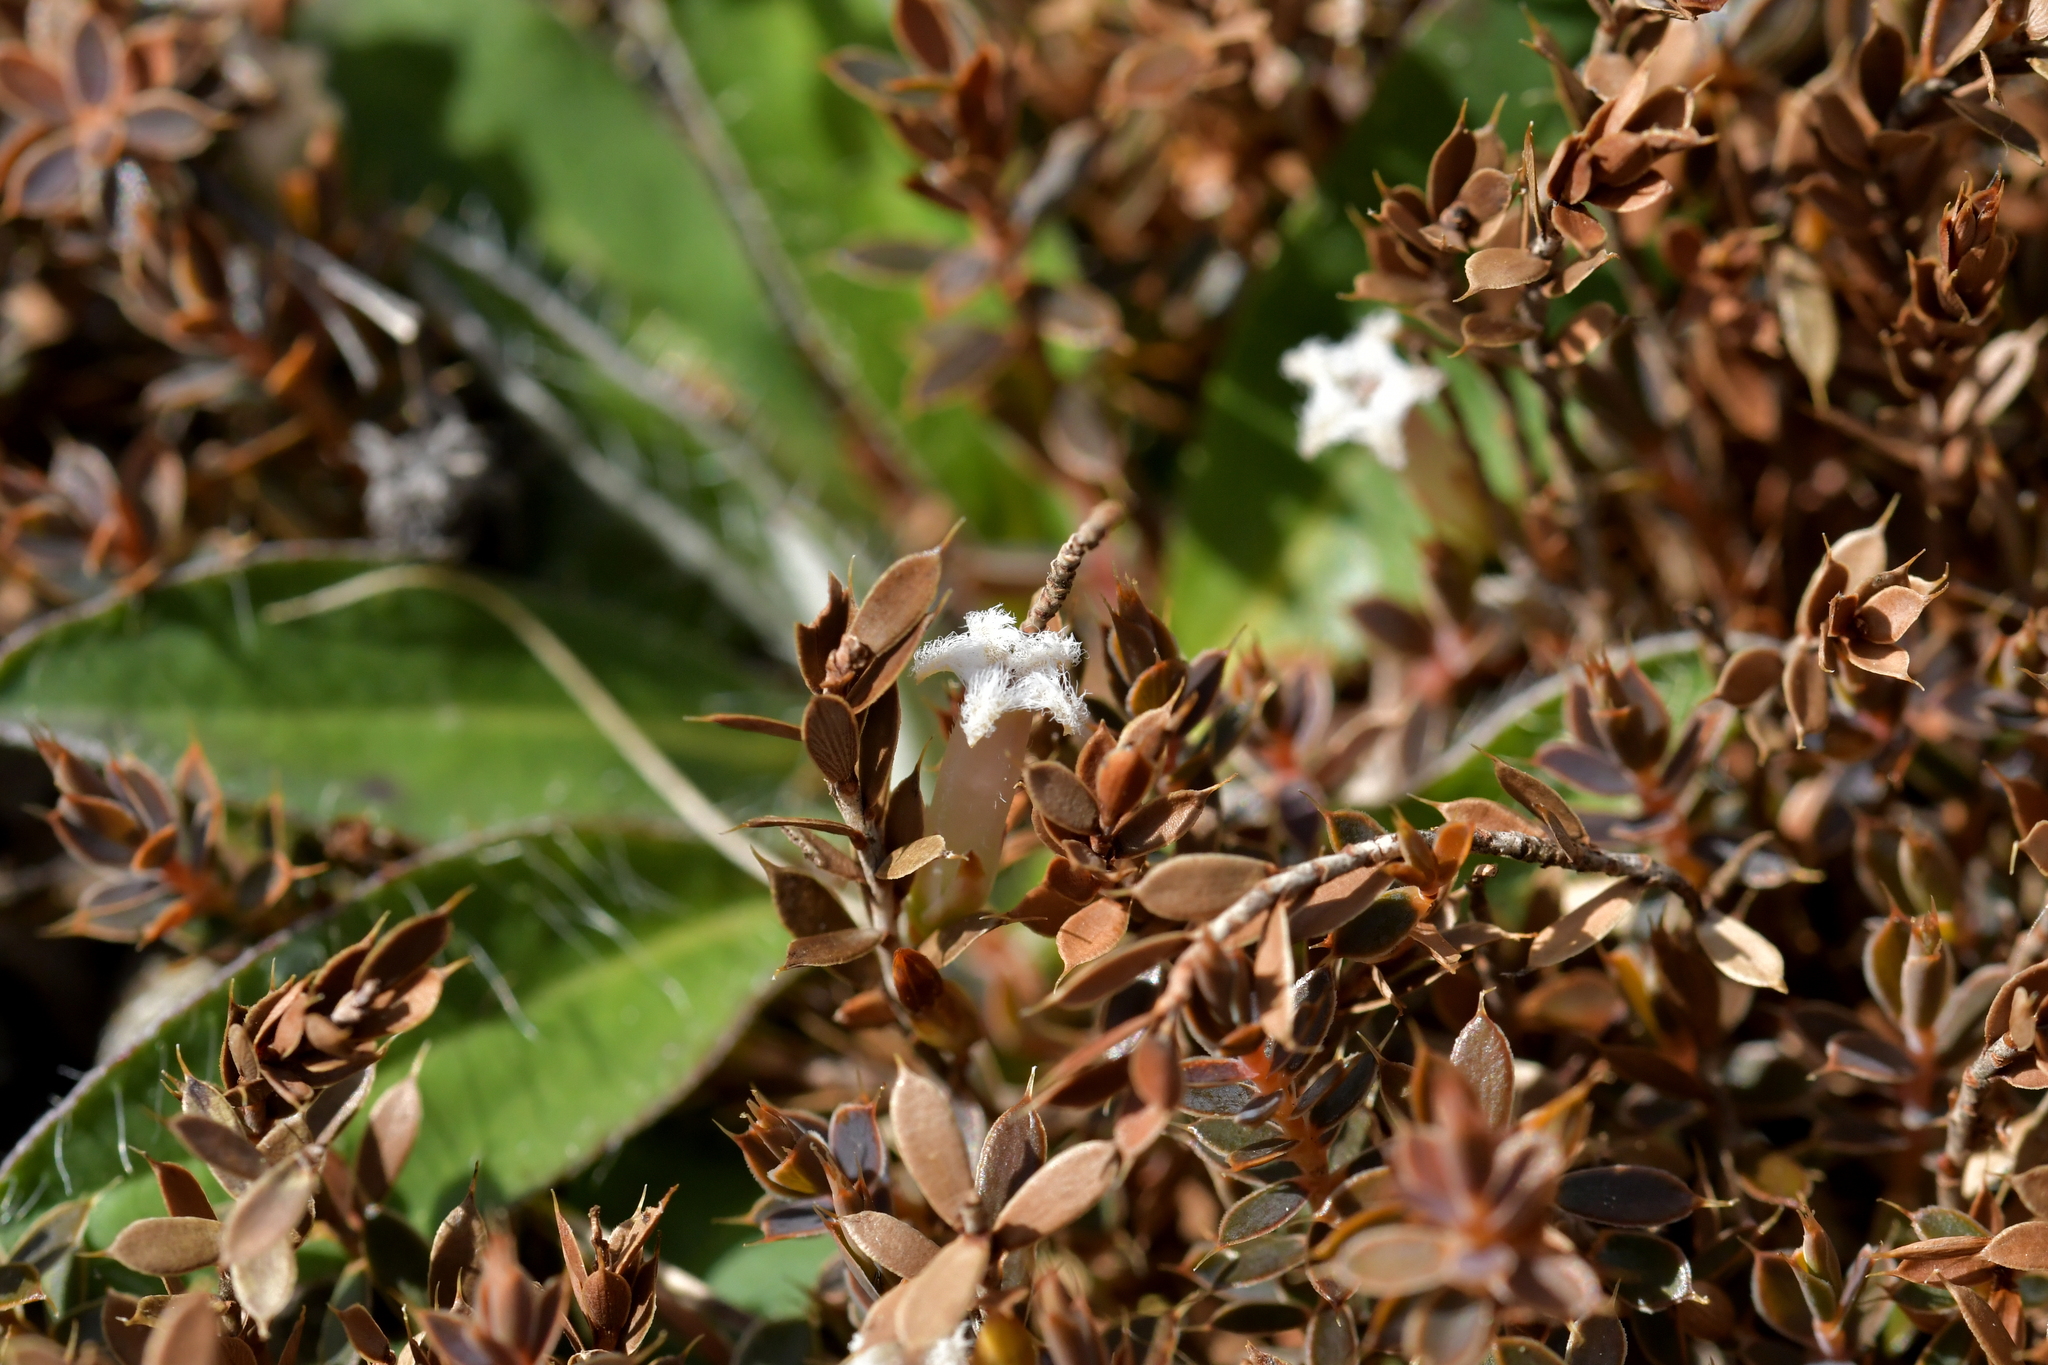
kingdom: Plantae
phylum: Tracheophyta
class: Magnoliopsida
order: Ericales
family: Ericaceae
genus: Styphelia
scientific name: Styphelia nesophila
